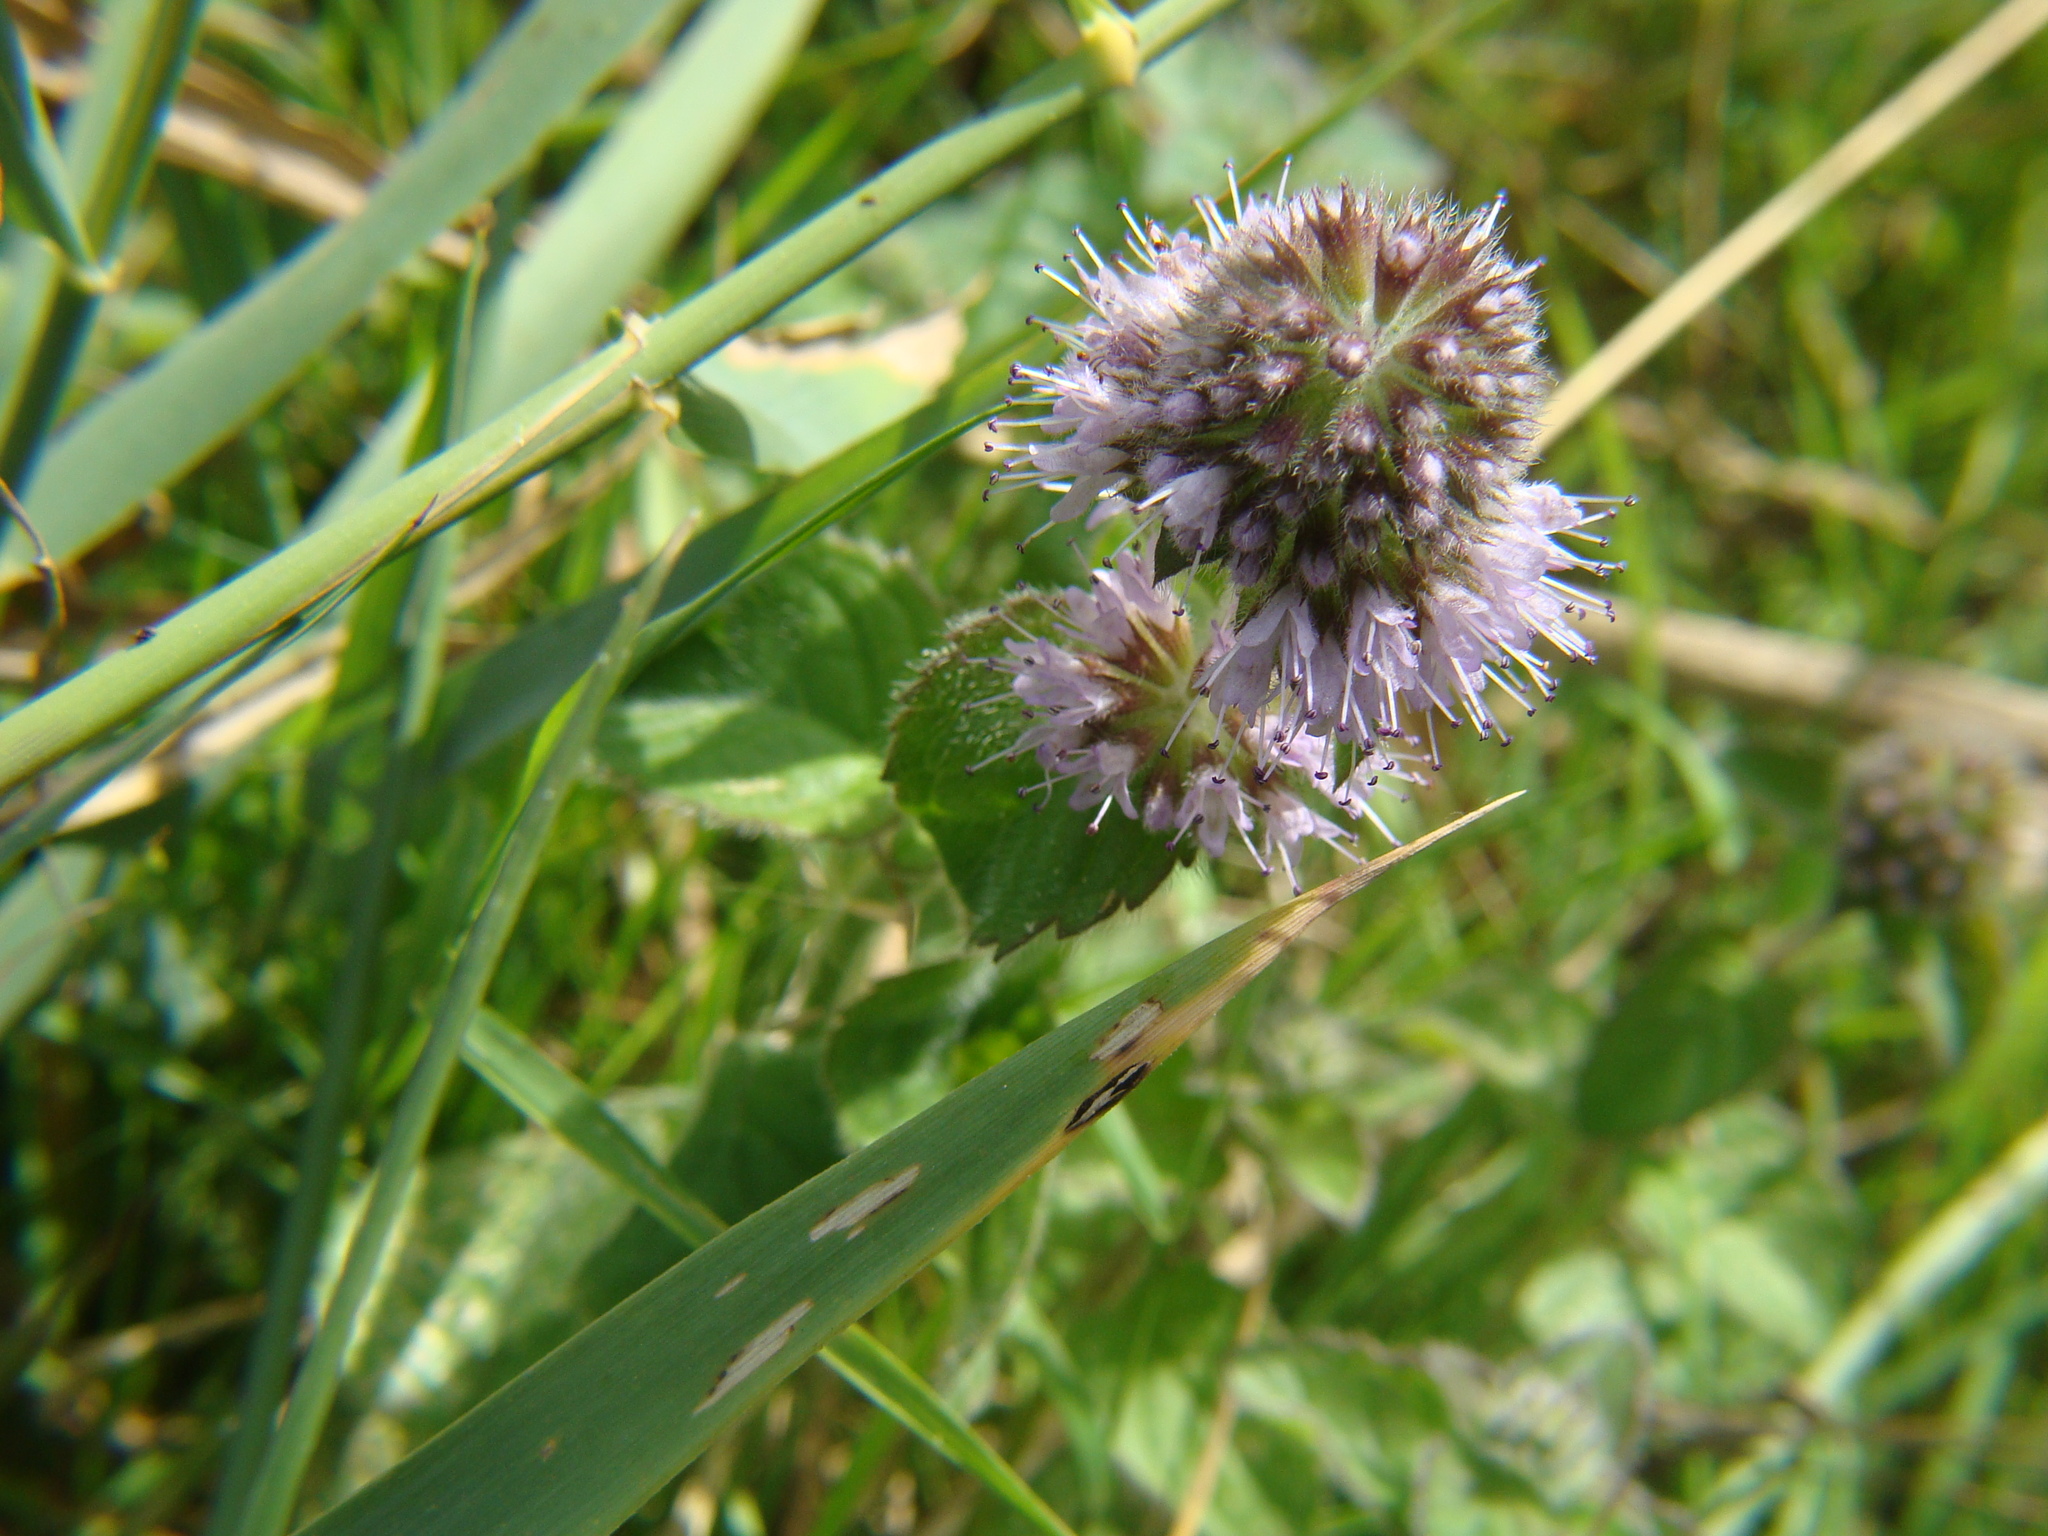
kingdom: Plantae
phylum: Tracheophyta
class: Magnoliopsida
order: Lamiales
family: Lamiaceae
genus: Mentha
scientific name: Mentha aquatica
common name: Water mint
